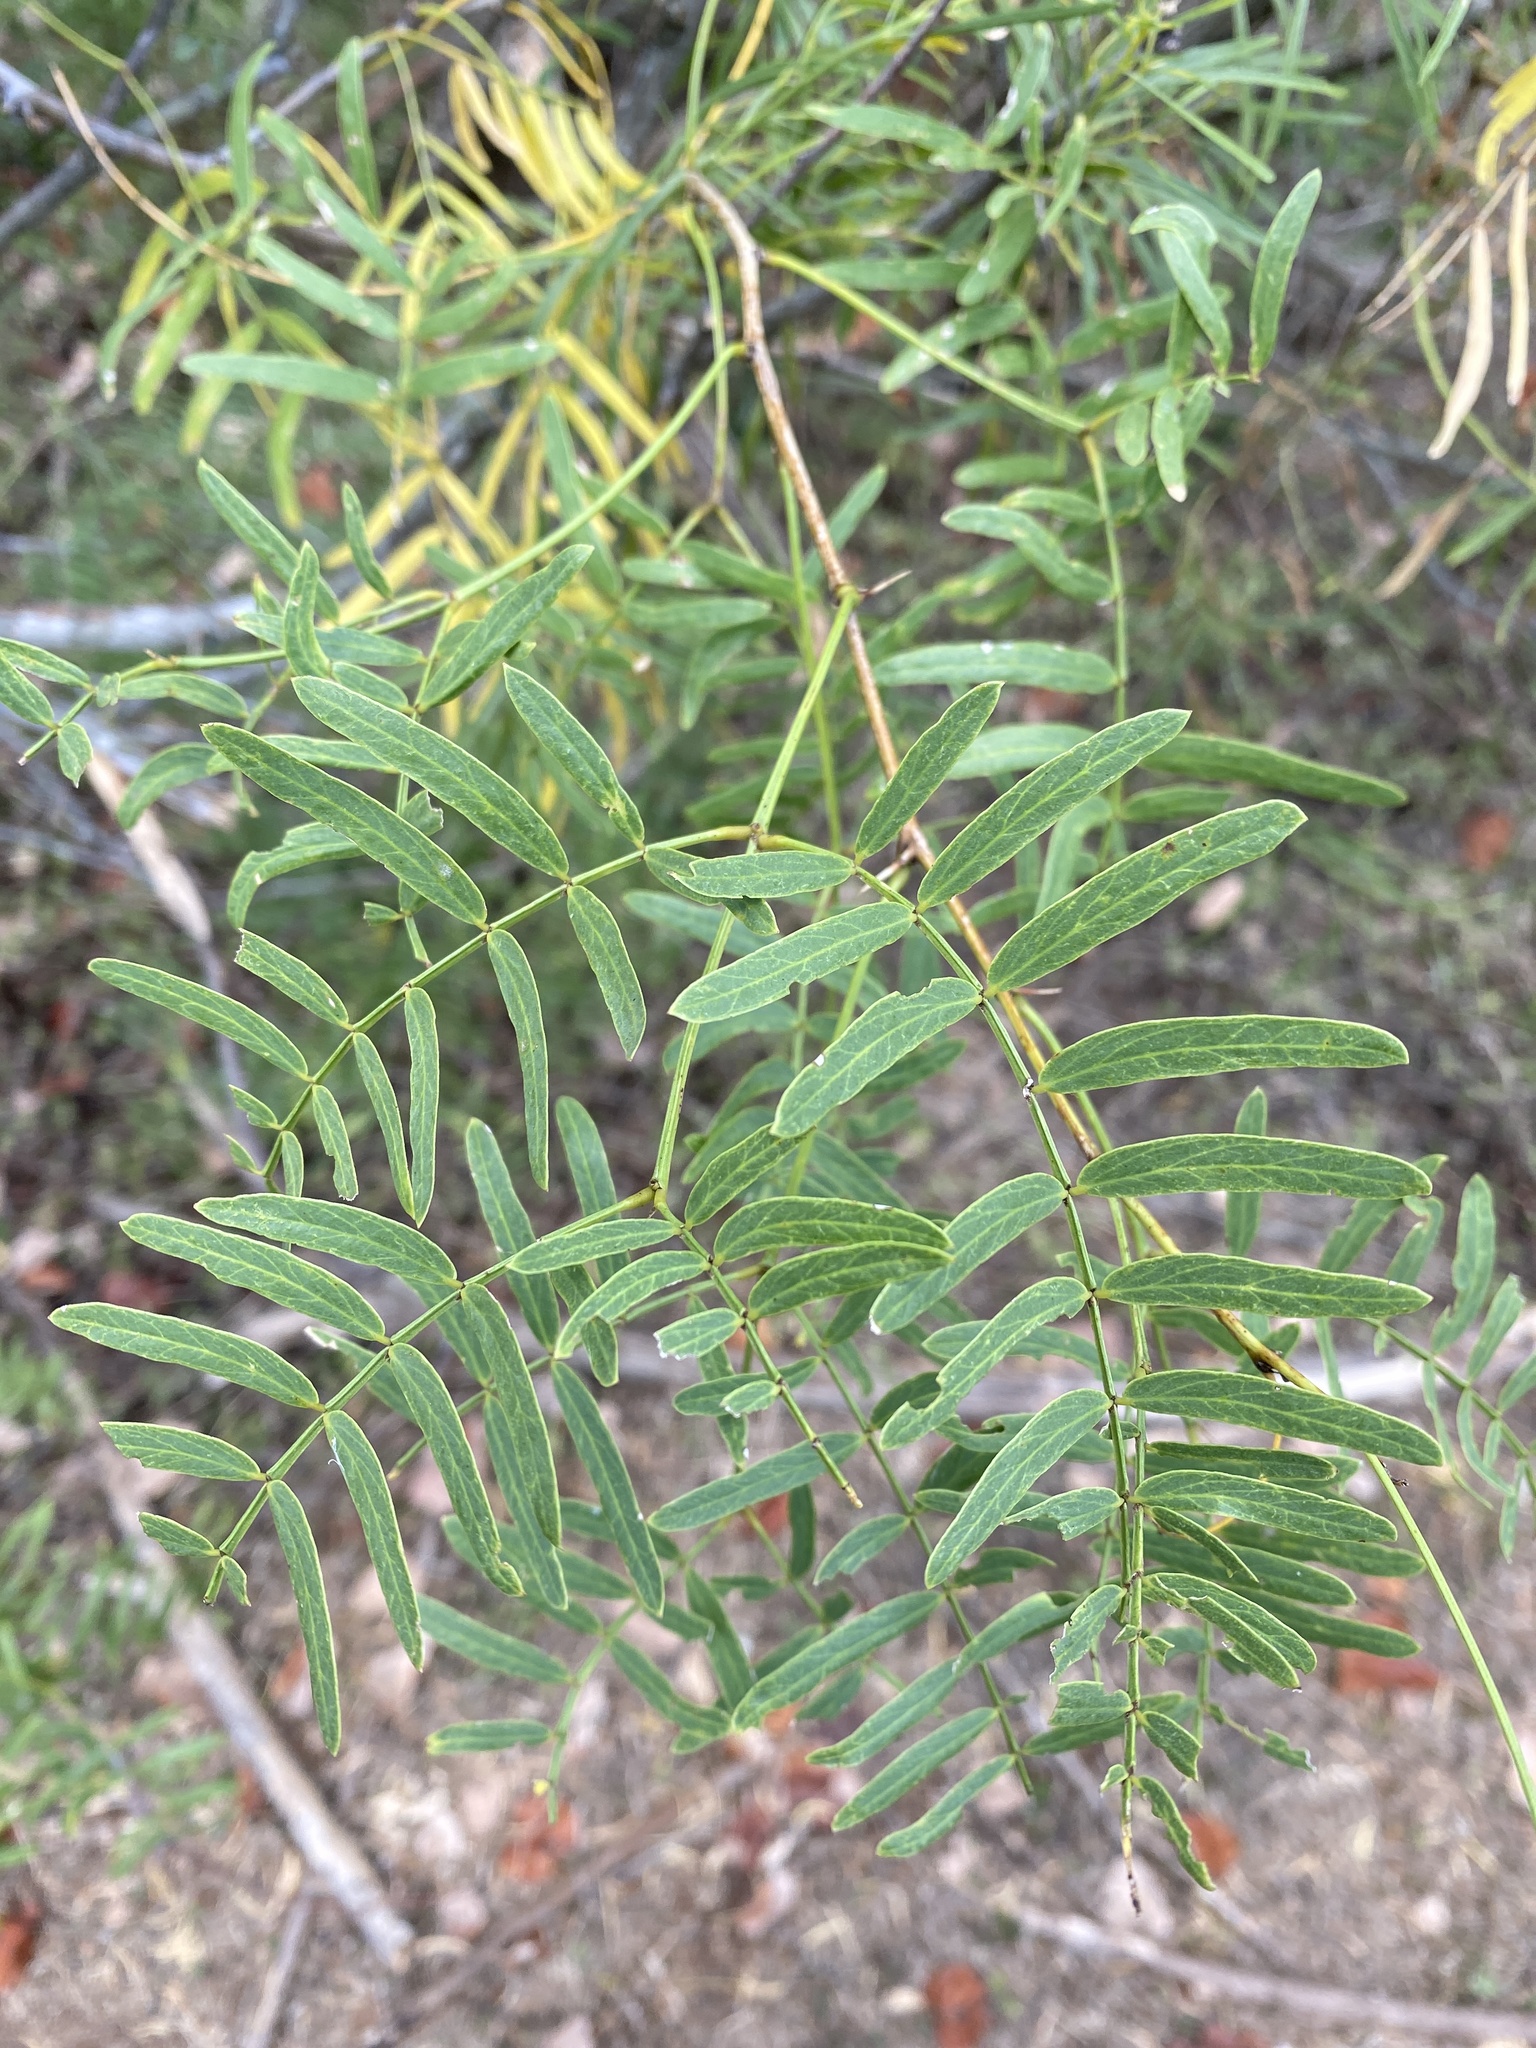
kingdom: Plantae
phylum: Tracheophyta
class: Magnoliopsida
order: Fabales
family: Fabaceae
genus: Prosopis
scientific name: Prosopis glandulosa
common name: Honey mesquite
